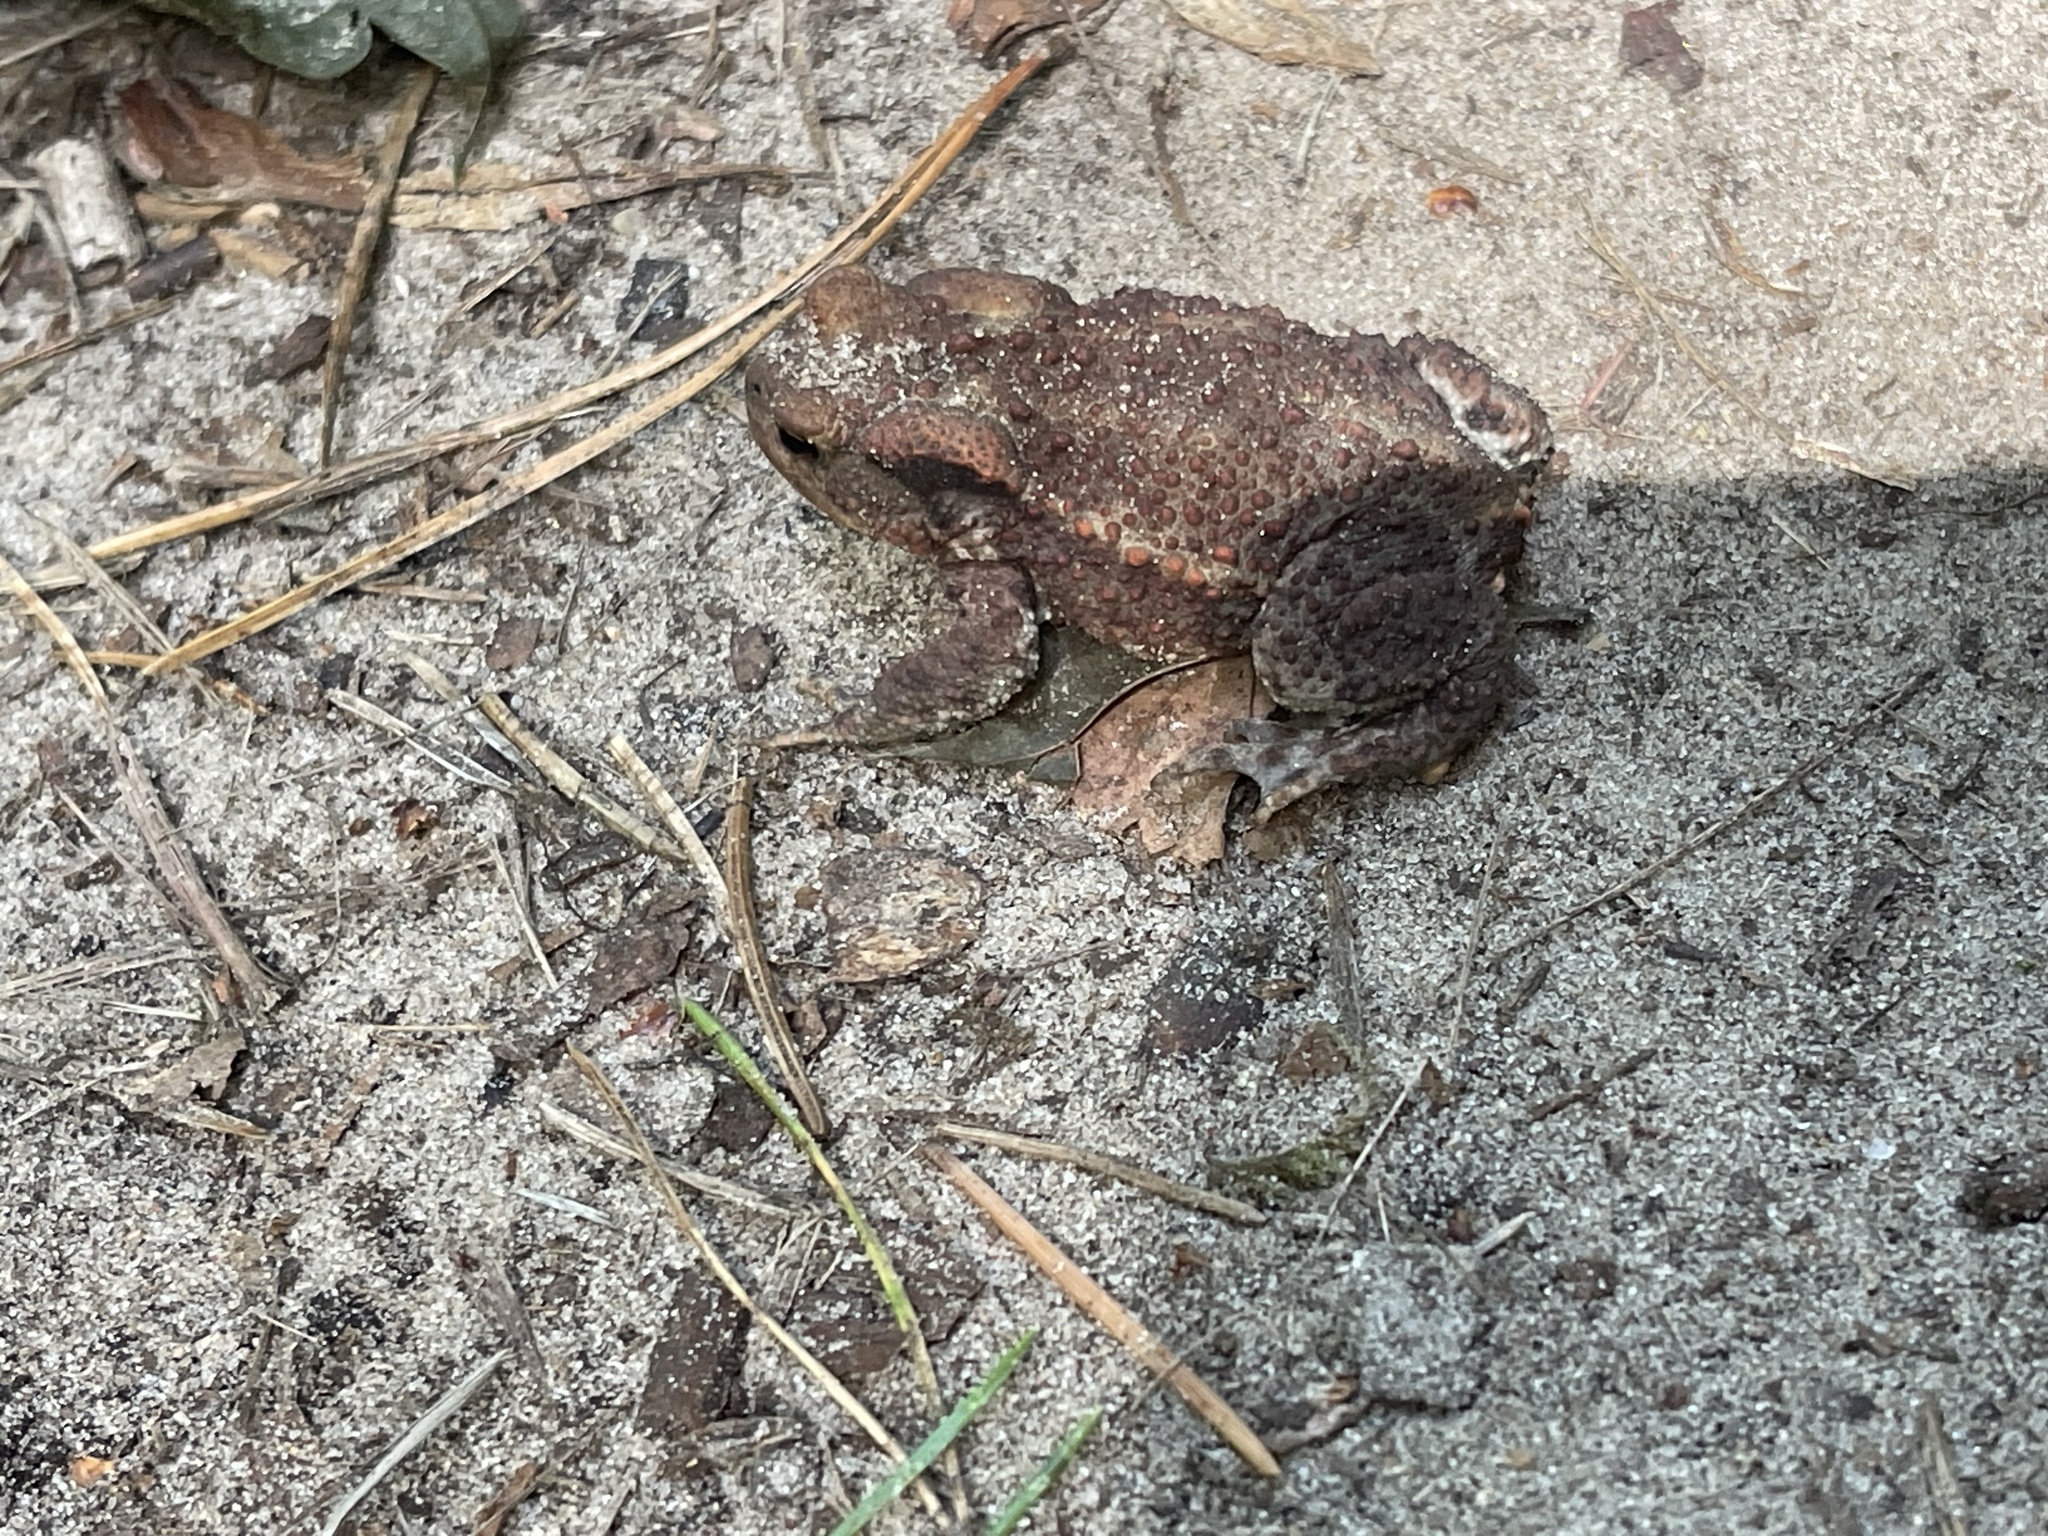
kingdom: Animalia
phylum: Chordata
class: Amphibia
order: Anura
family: Bufonidae
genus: Bufo
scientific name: Bufo bufo
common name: Common toad
